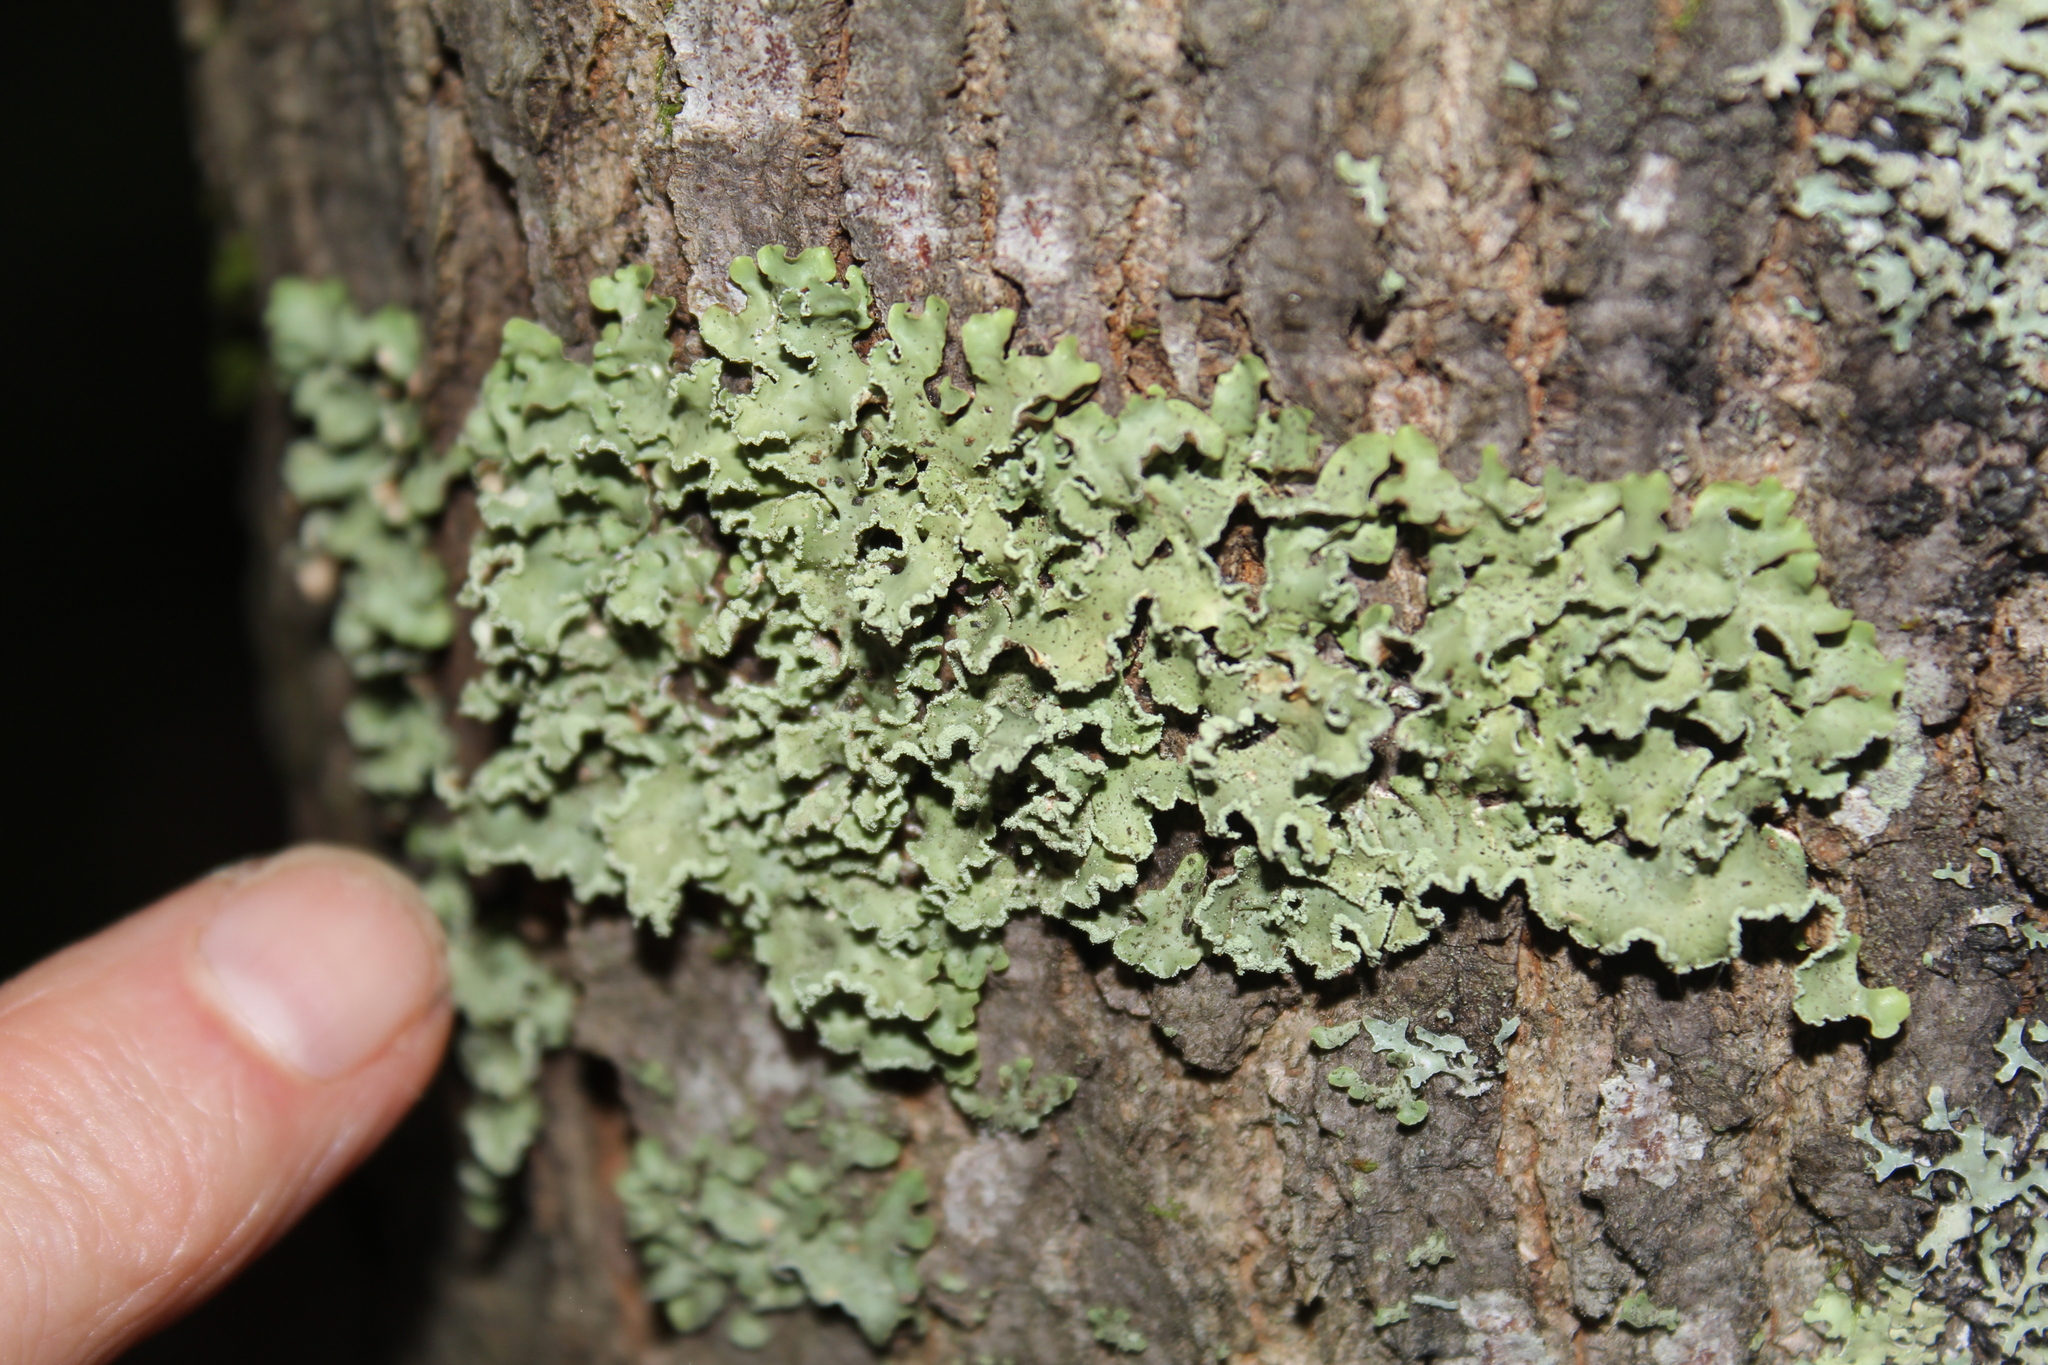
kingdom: Fungi
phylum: Ascomycota
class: Lecanoromycetes
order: Lecanorales
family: Parmeliaceae
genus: Usnocetraria
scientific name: Usnocetraria oakesiana
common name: Yellow ribbon lichen
